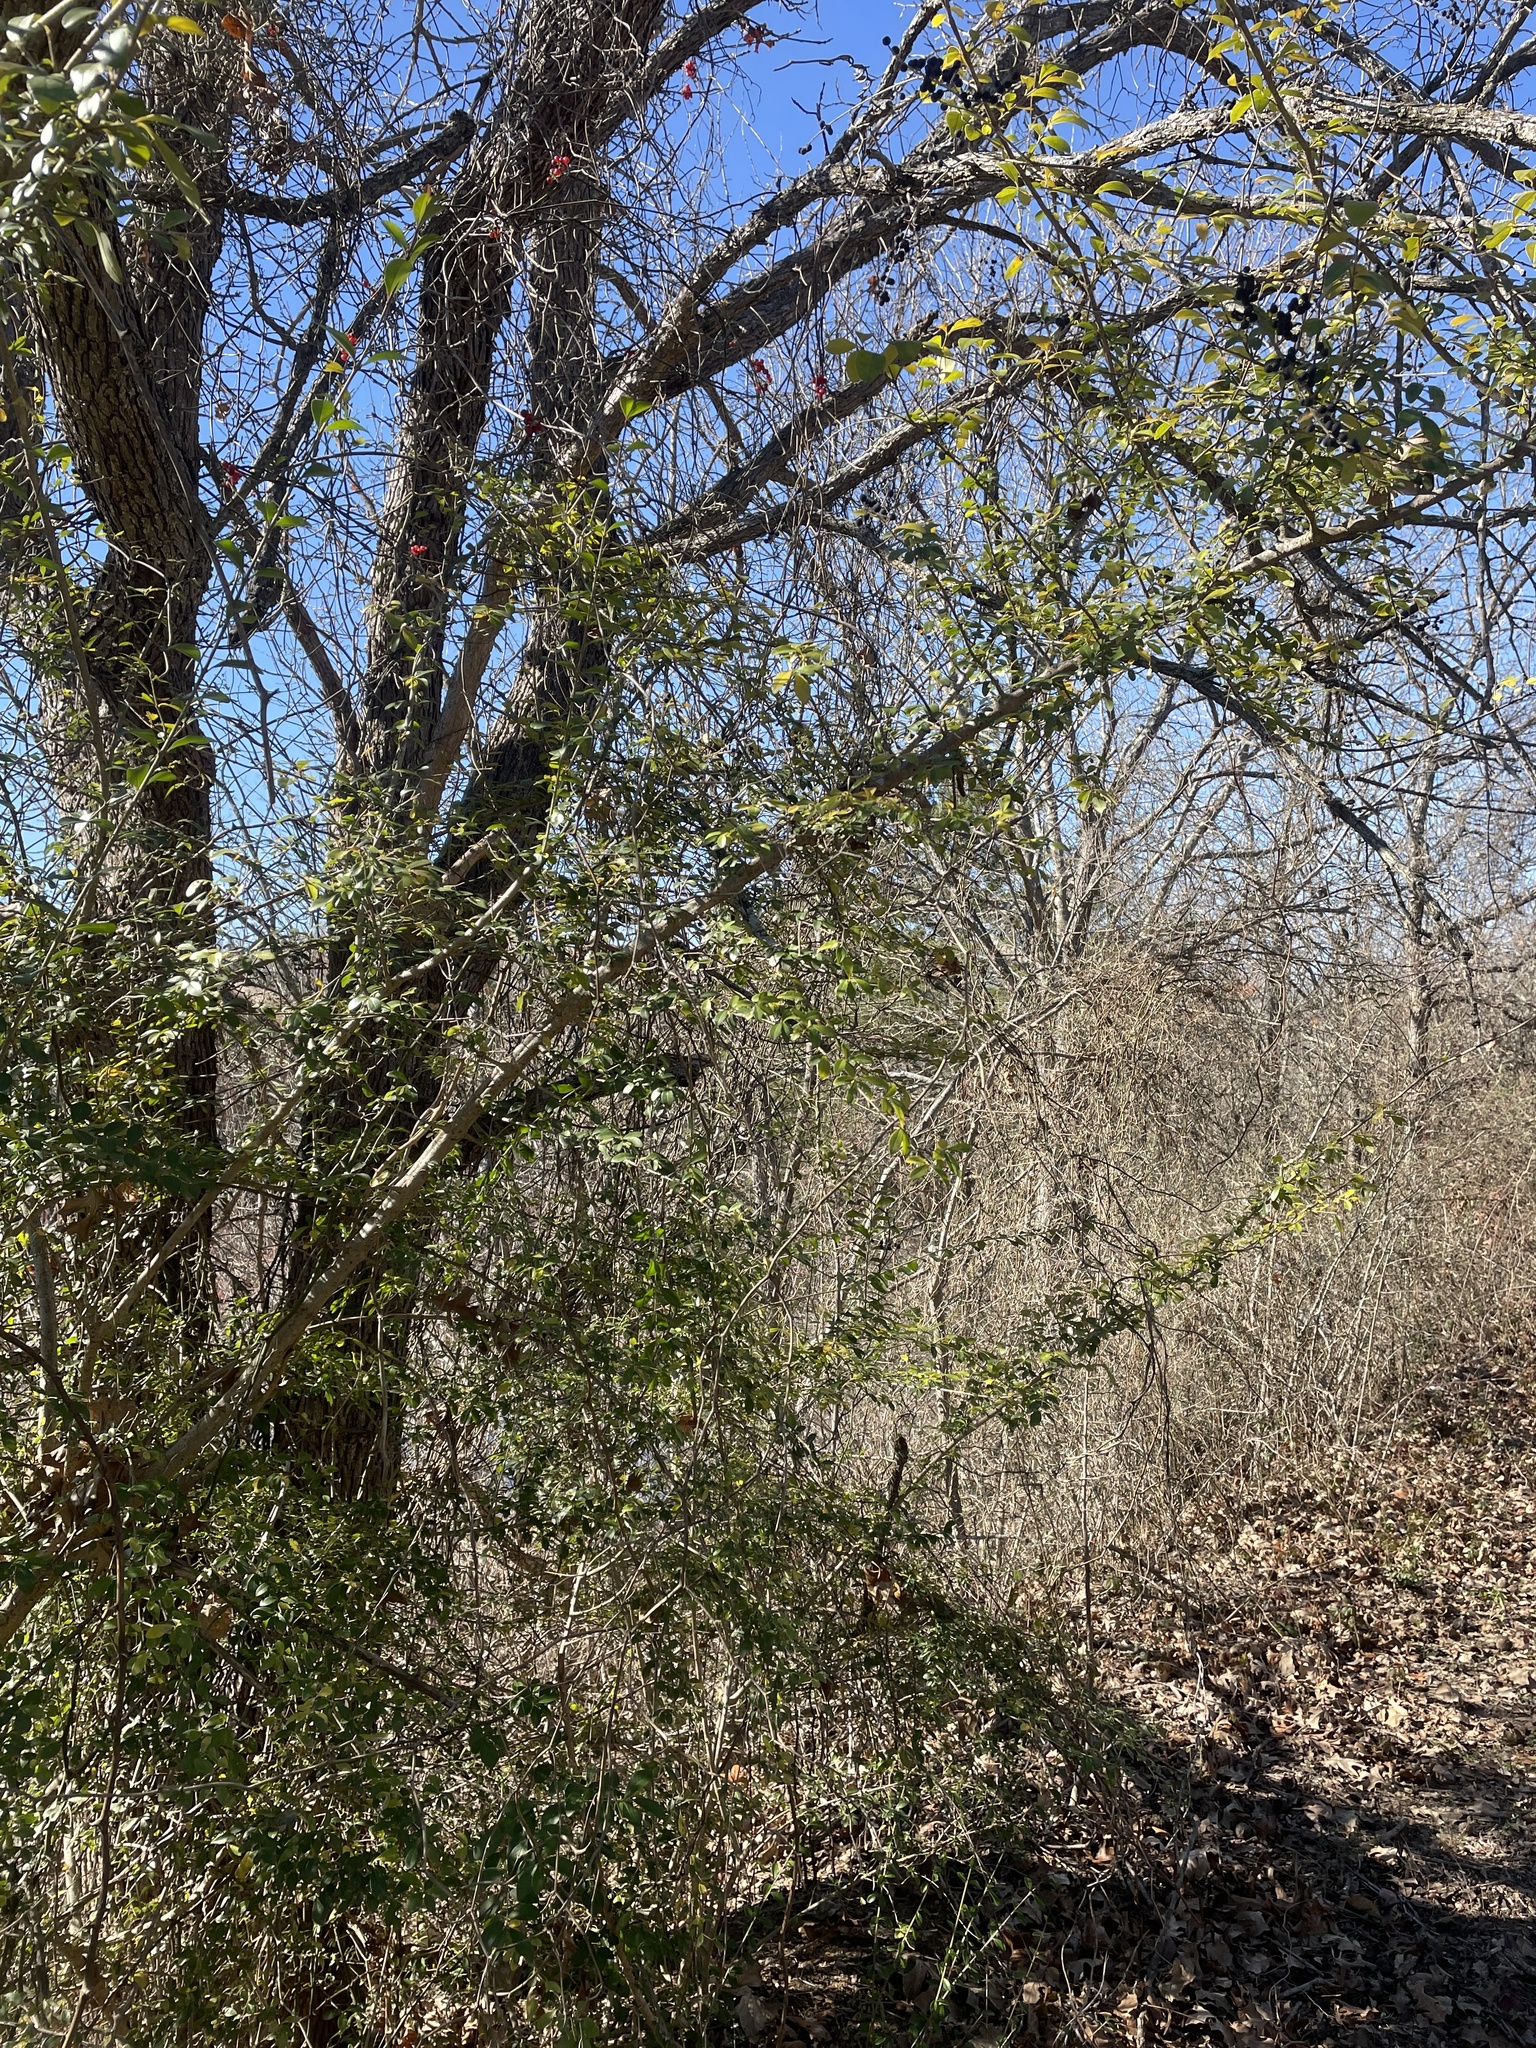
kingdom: Plantae
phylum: Tracheophyta
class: Magnoliopsida
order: Lamiales
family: Oleaceae
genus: Ligustrum
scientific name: Ligustrum quihoui
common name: Waxyleaf privet
